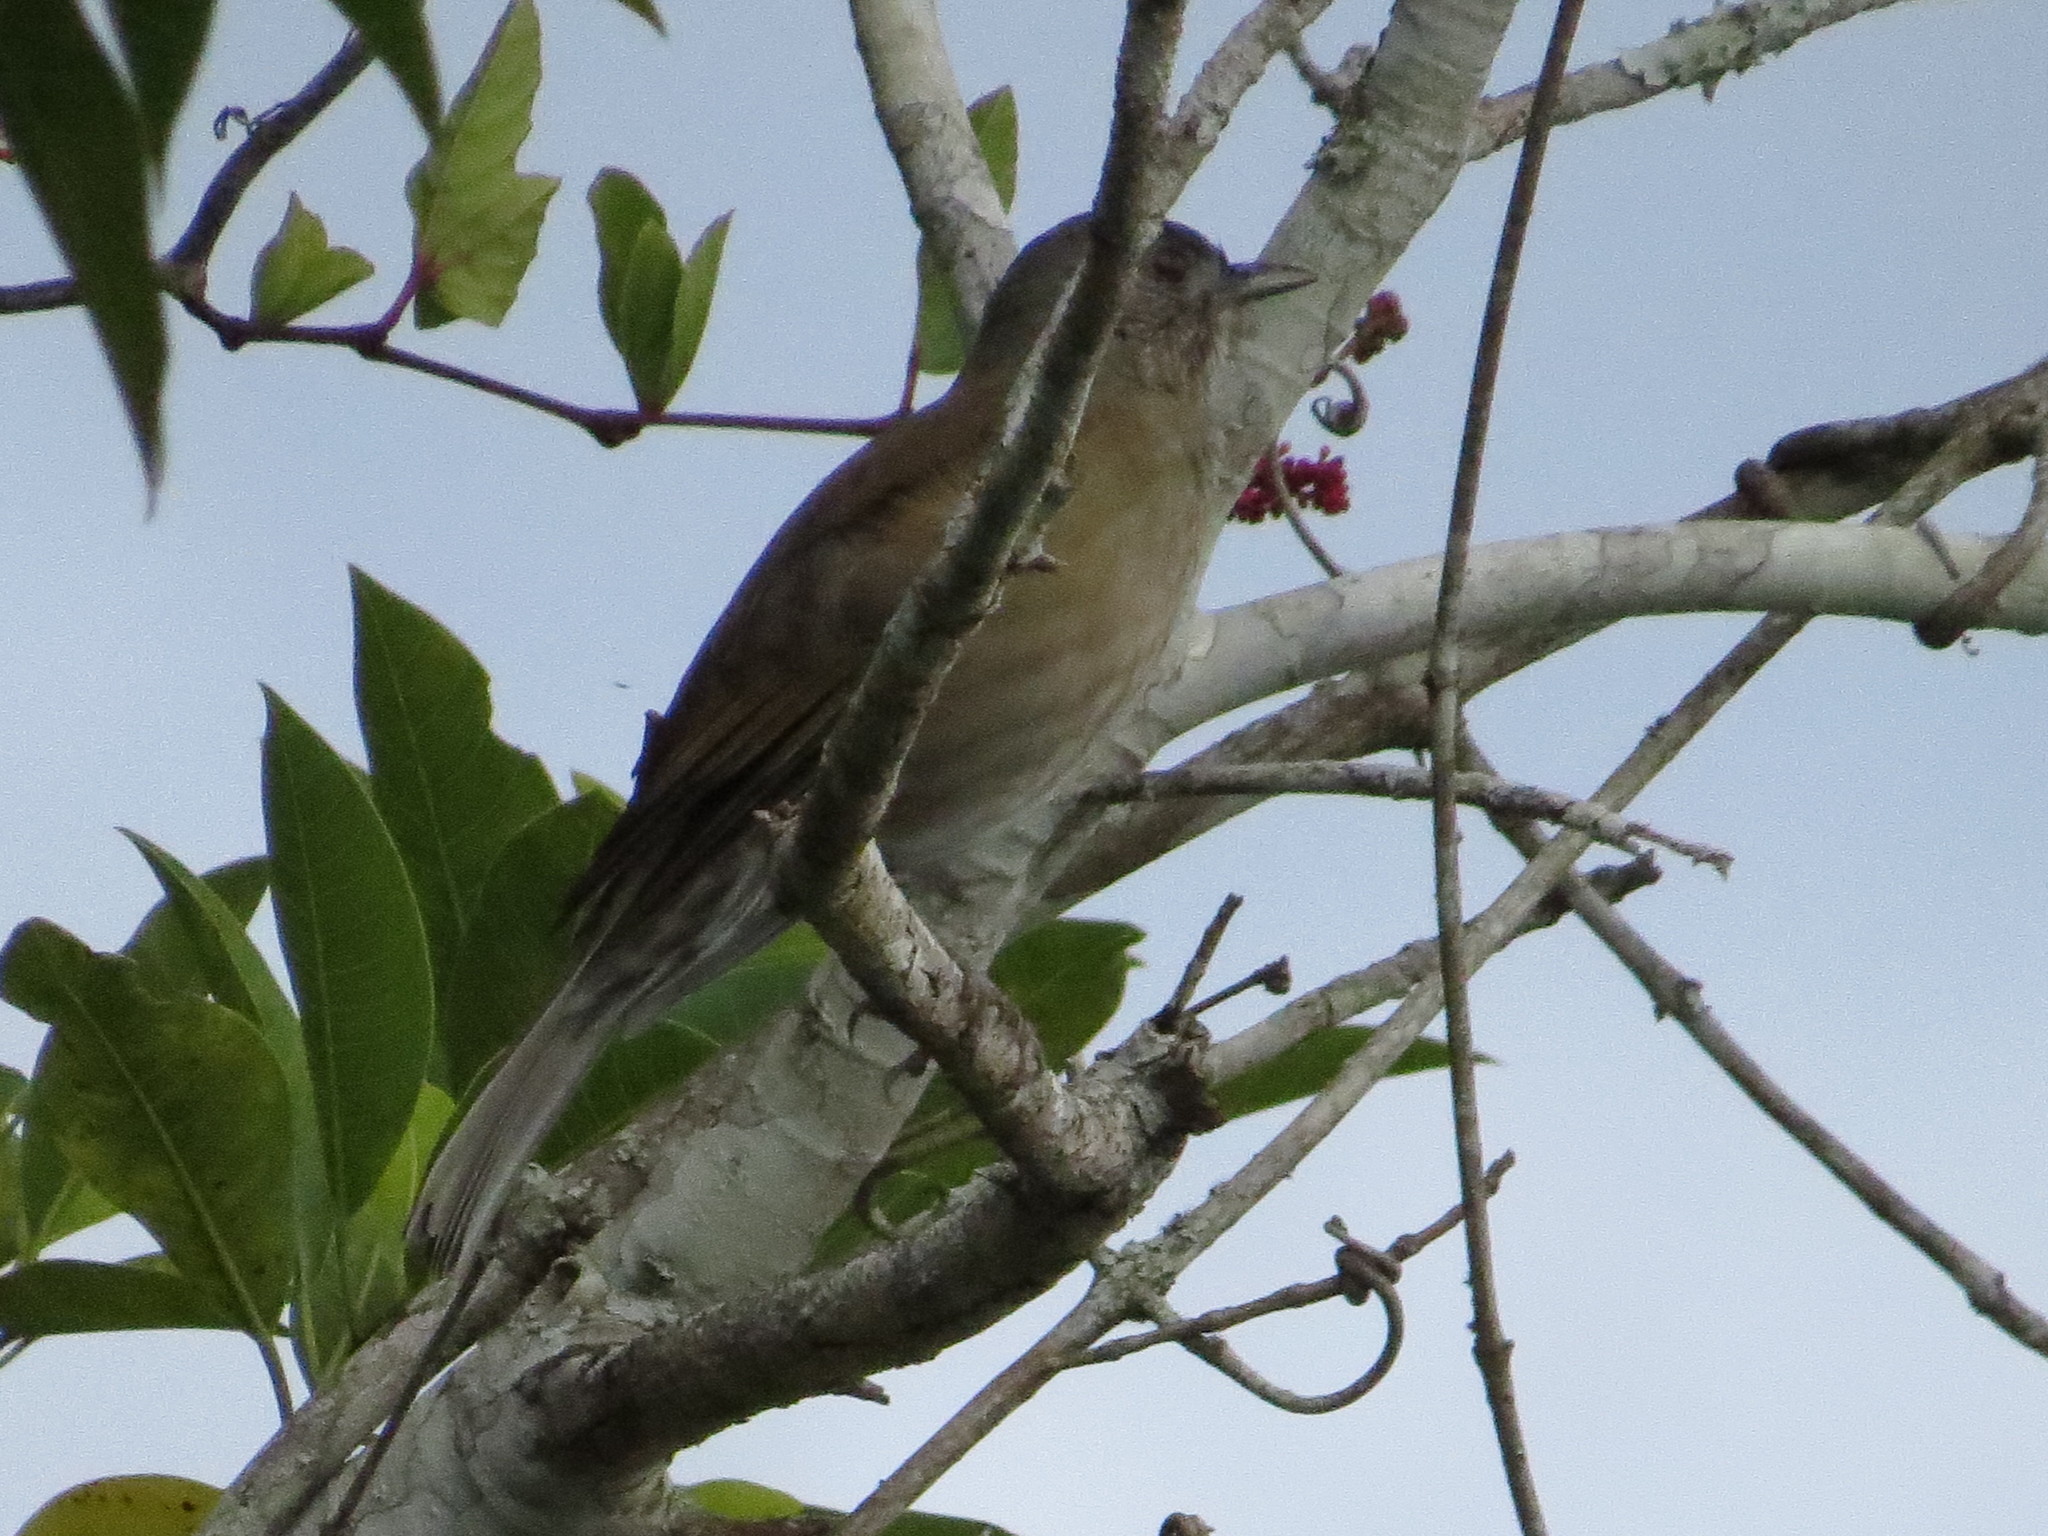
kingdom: Animalia
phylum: Chordata
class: Aves
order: Passeriformes
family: Turdidae
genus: Turdus
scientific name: Turdus leucomelas
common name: Pale-breasted thrush
